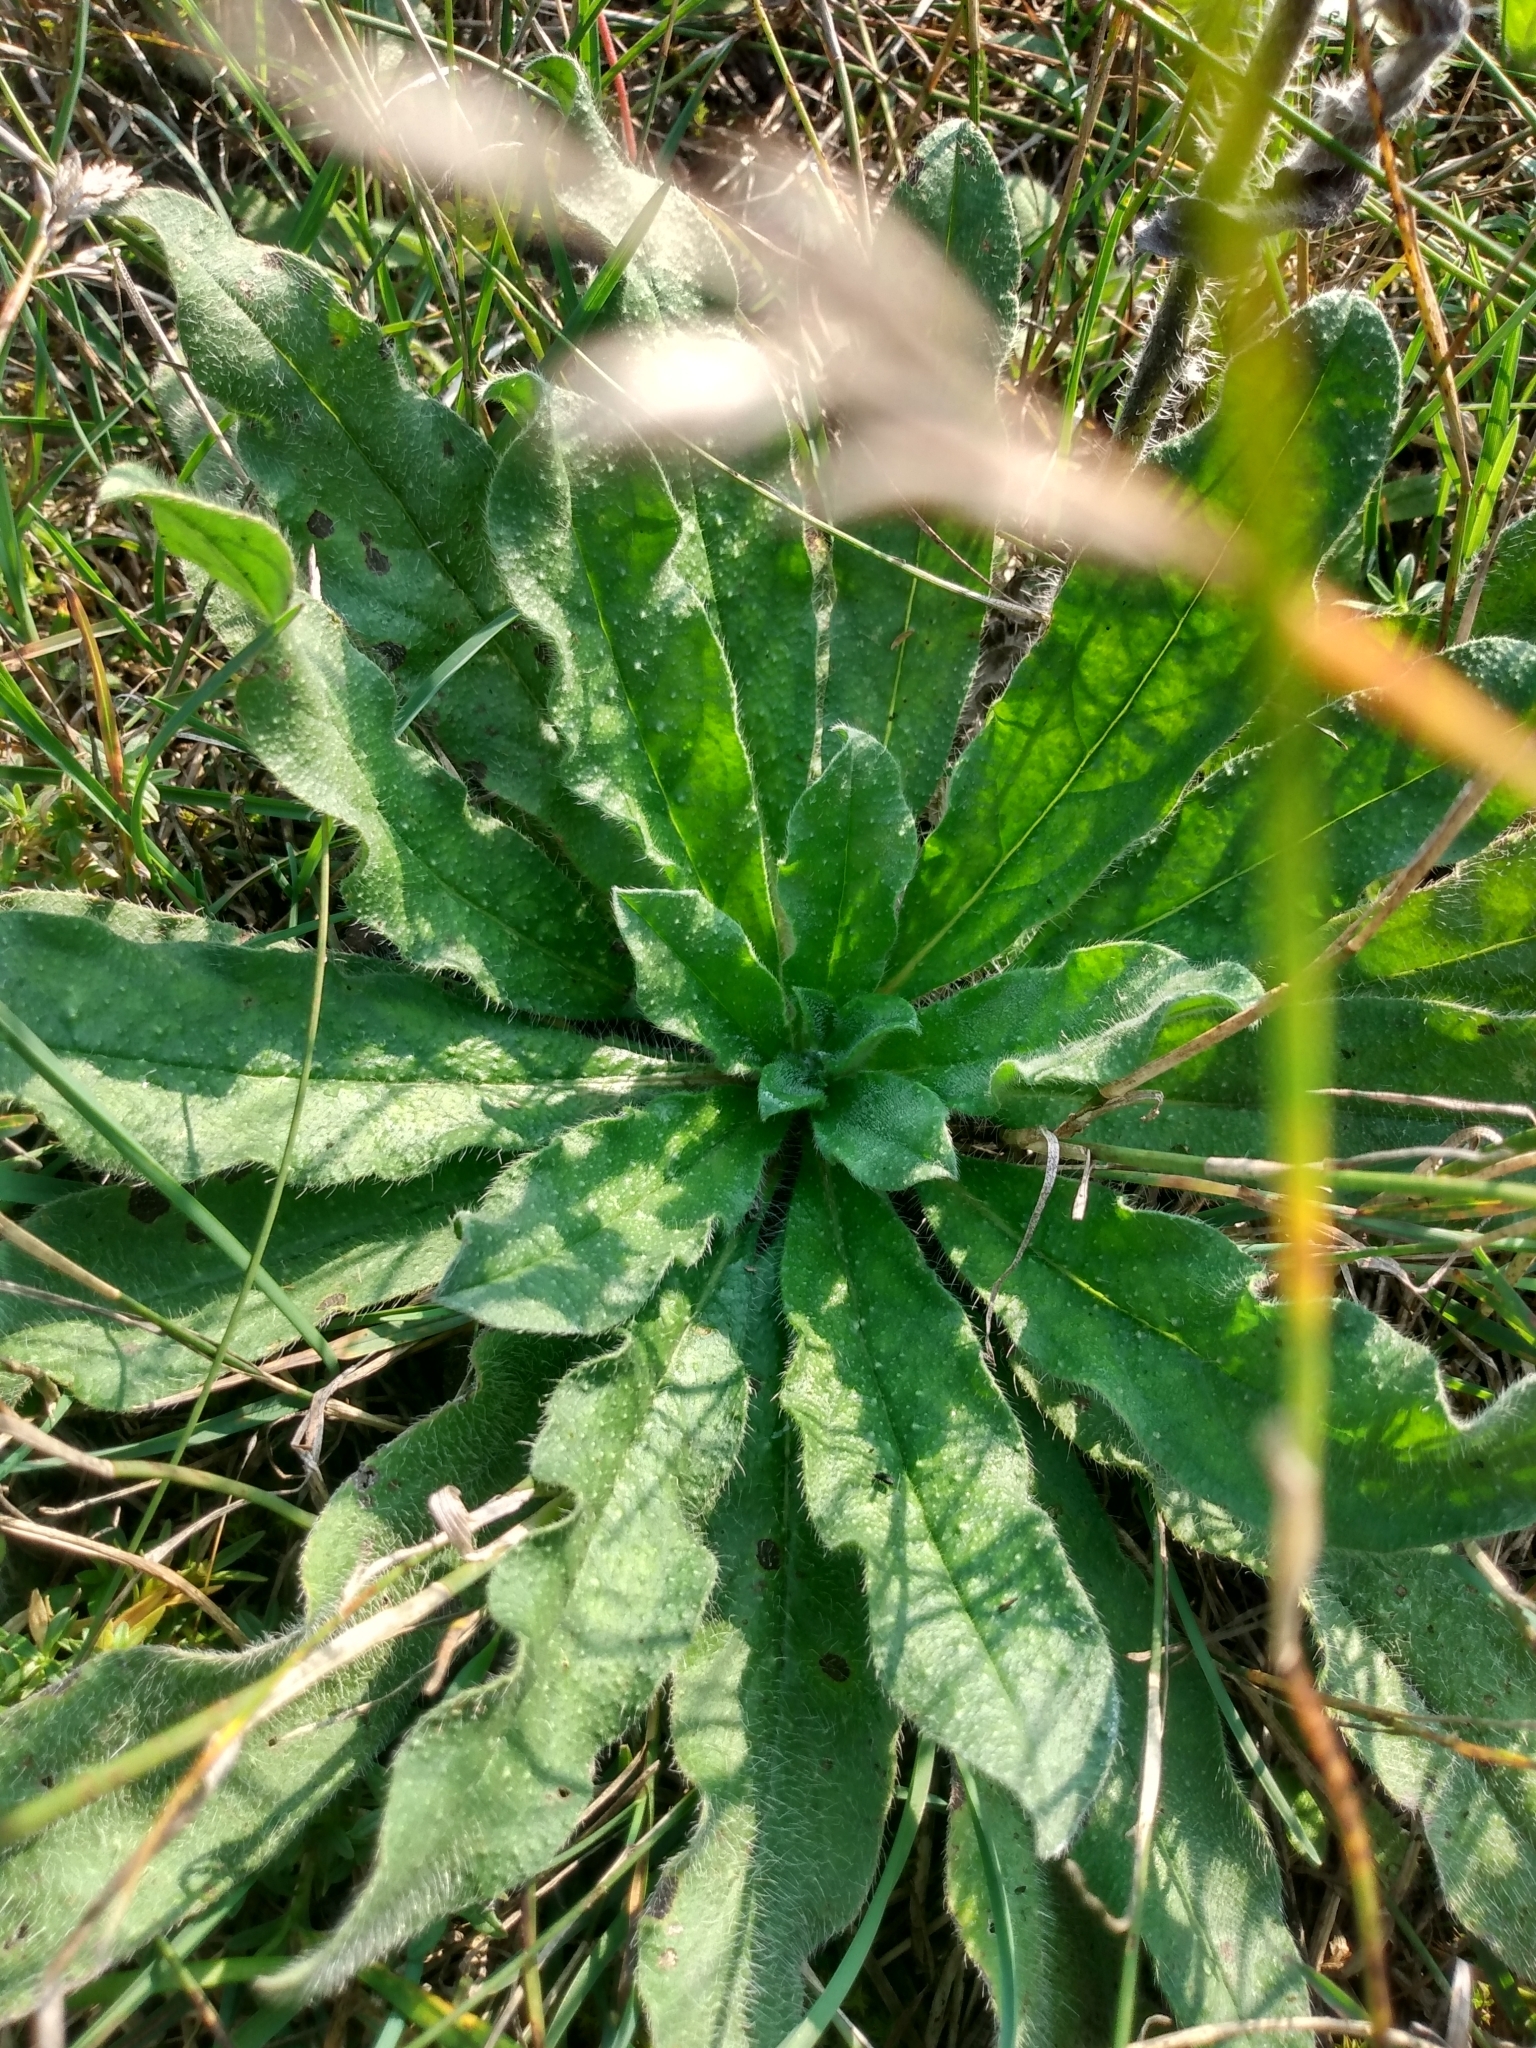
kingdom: Plantae
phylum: Tracheophyta
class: Magnoliopsida
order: Boraginales
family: Boraginaceae
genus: Echium
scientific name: Echium vulgare
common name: Common viper's bugloss
